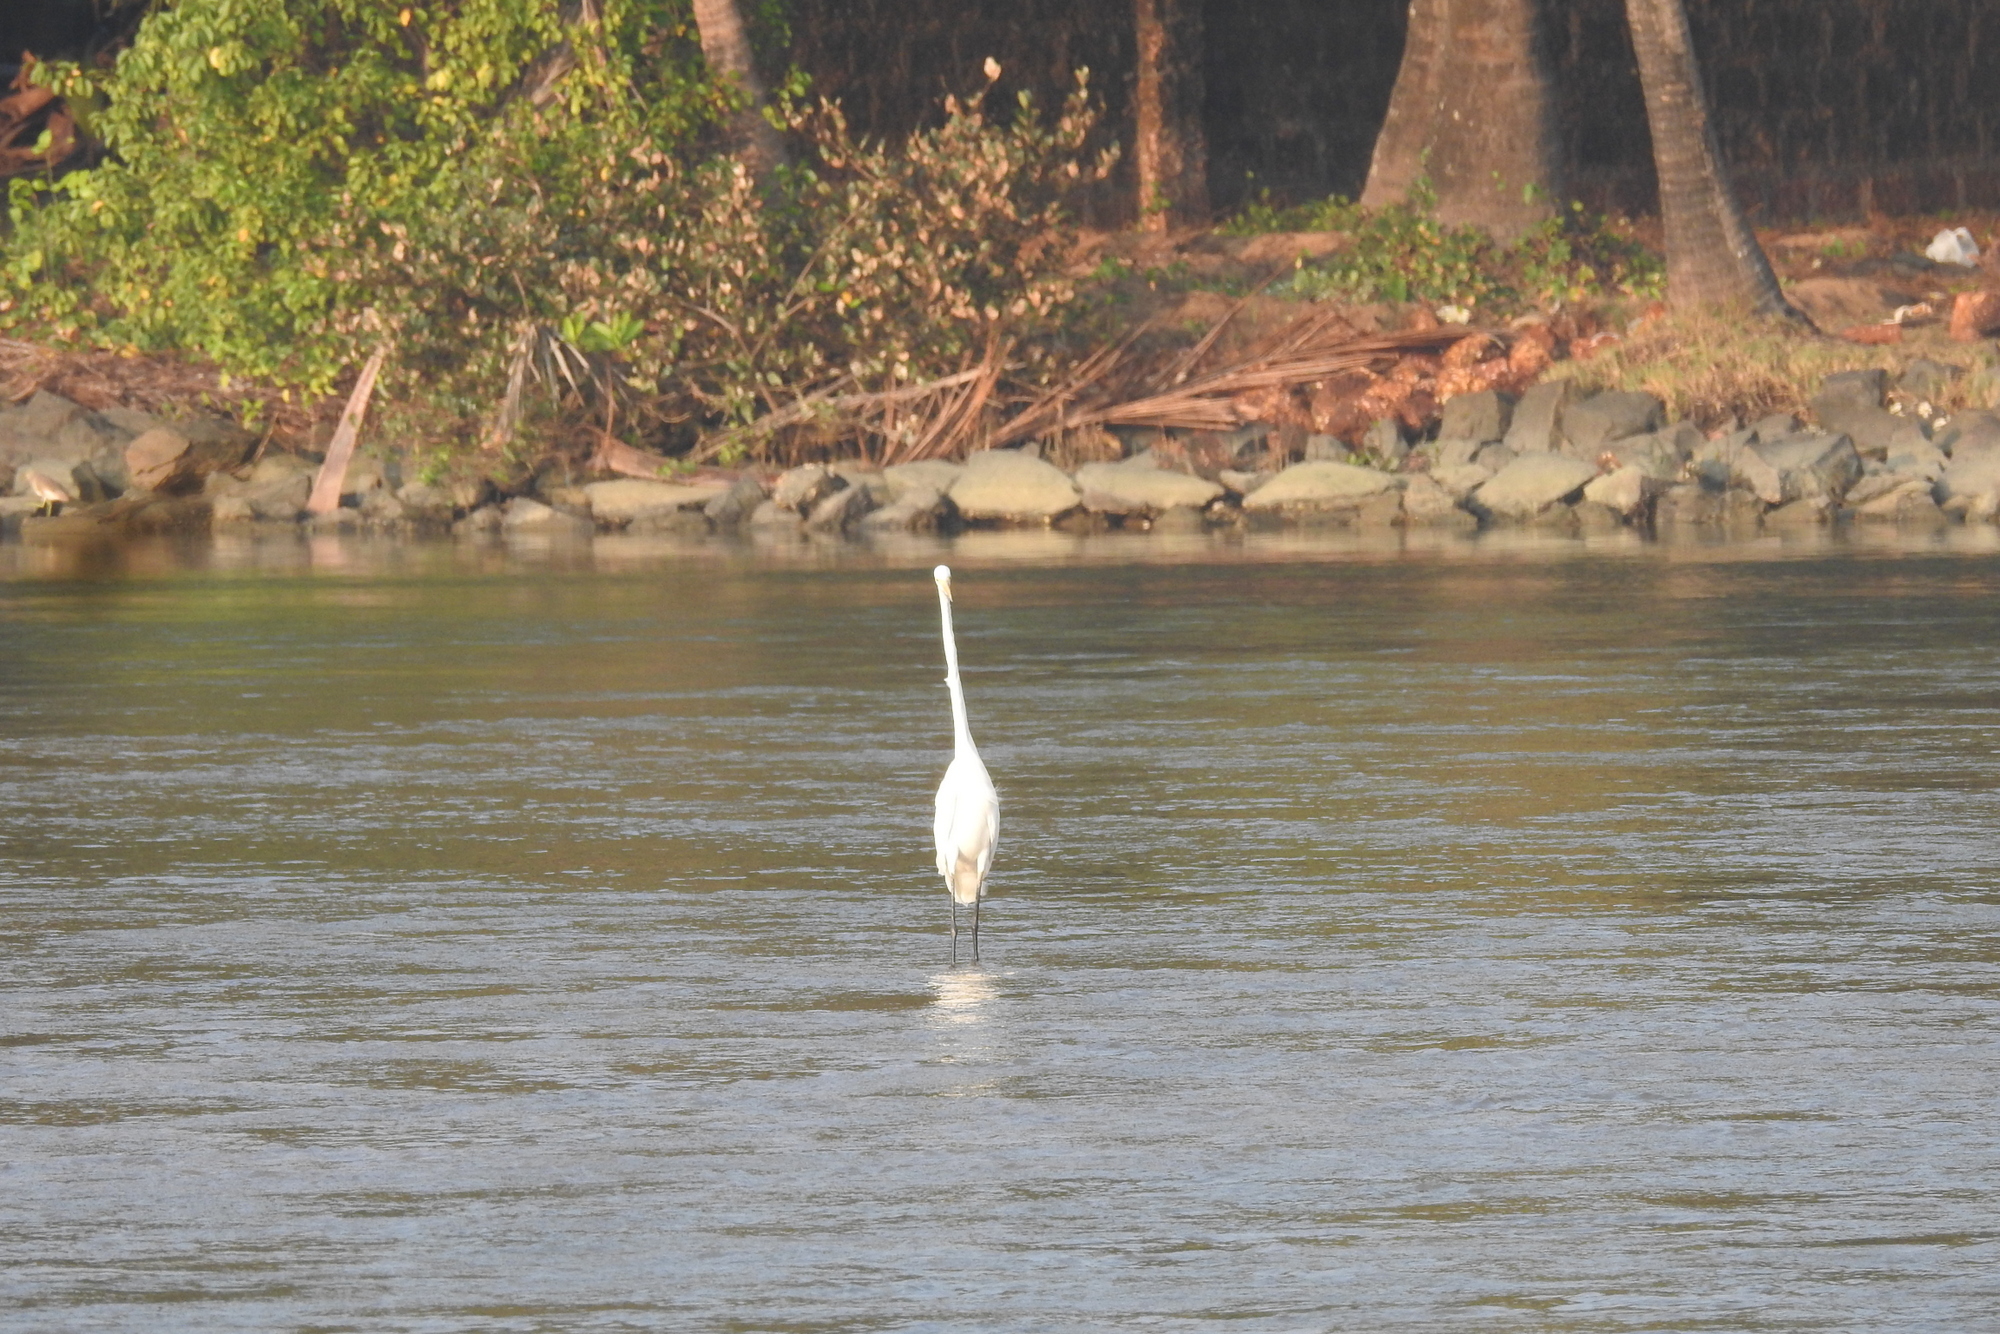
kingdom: Animalia
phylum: Chordata
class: Aves
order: Pelecaniformes
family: Ardeidae
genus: Ardea
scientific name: Ardea alba
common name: Great egret
